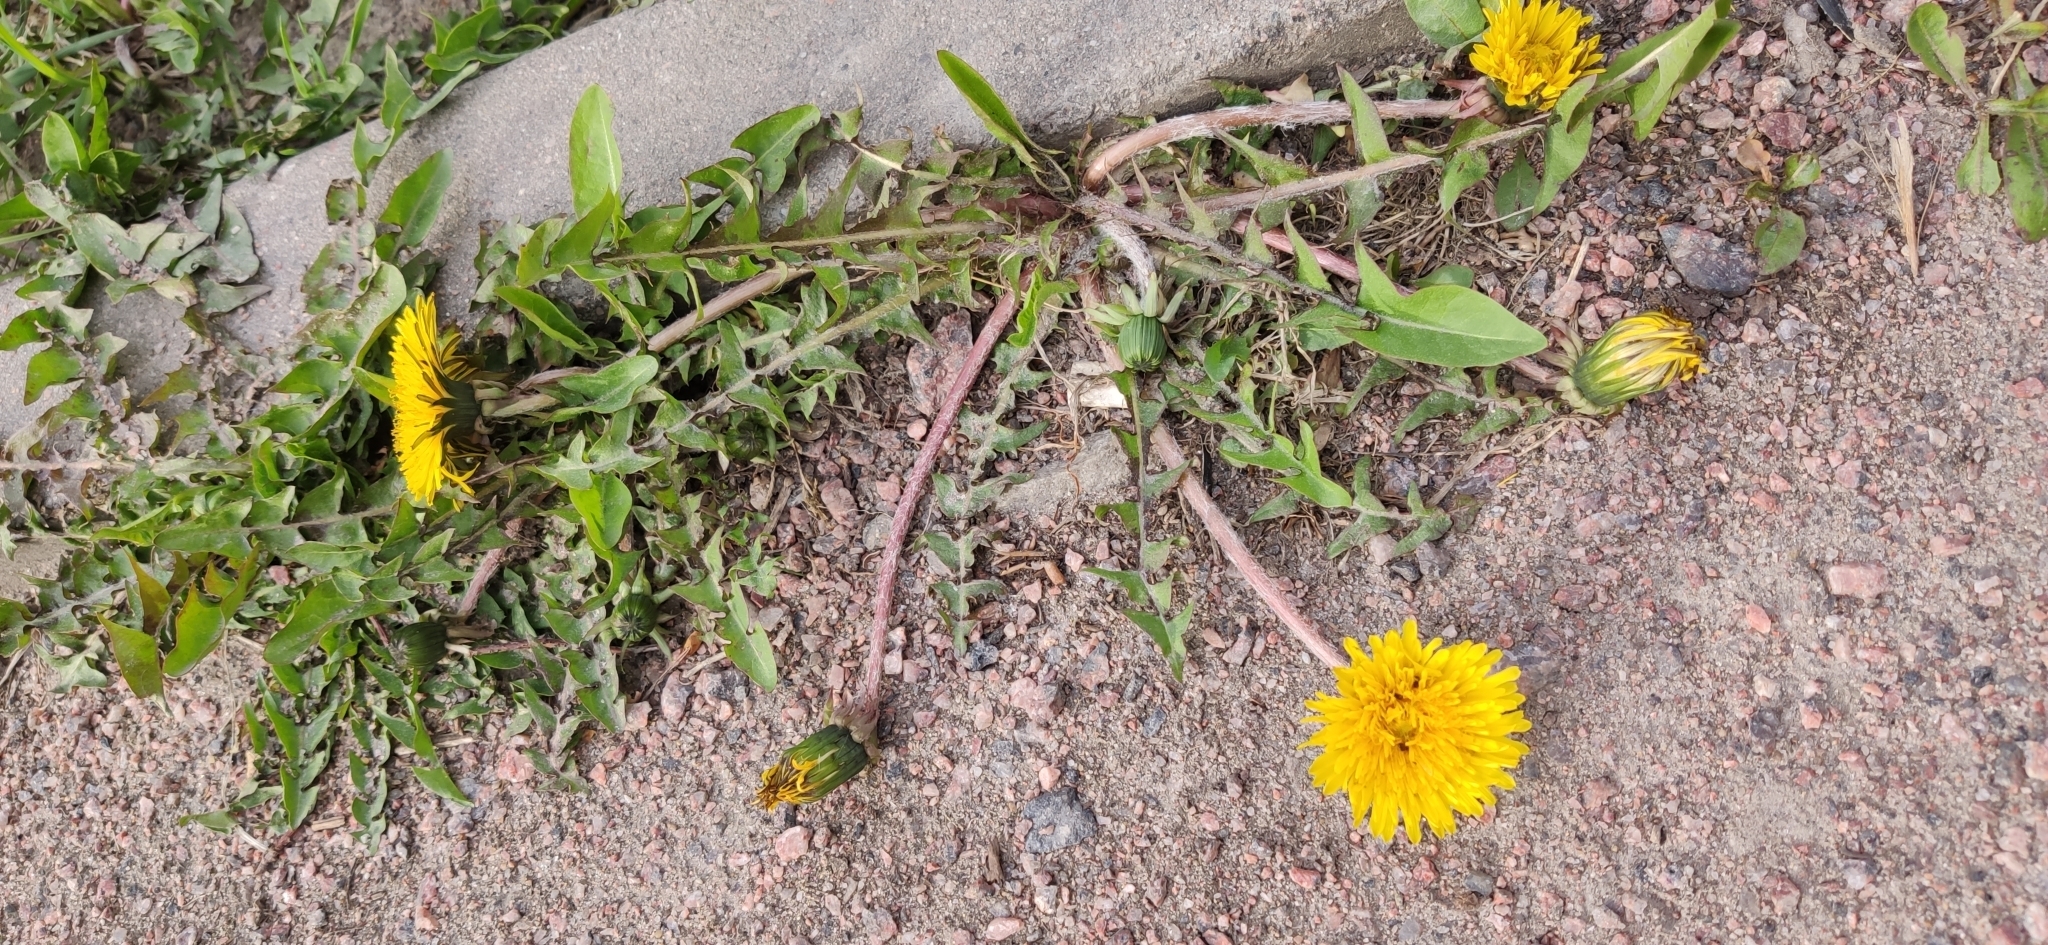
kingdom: Plantae
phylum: Tracheophyta
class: Magnoliopsida
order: Asterales
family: Asteraceae
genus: Taraxacum
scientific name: Taraxacum officinale
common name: Common dandelion
